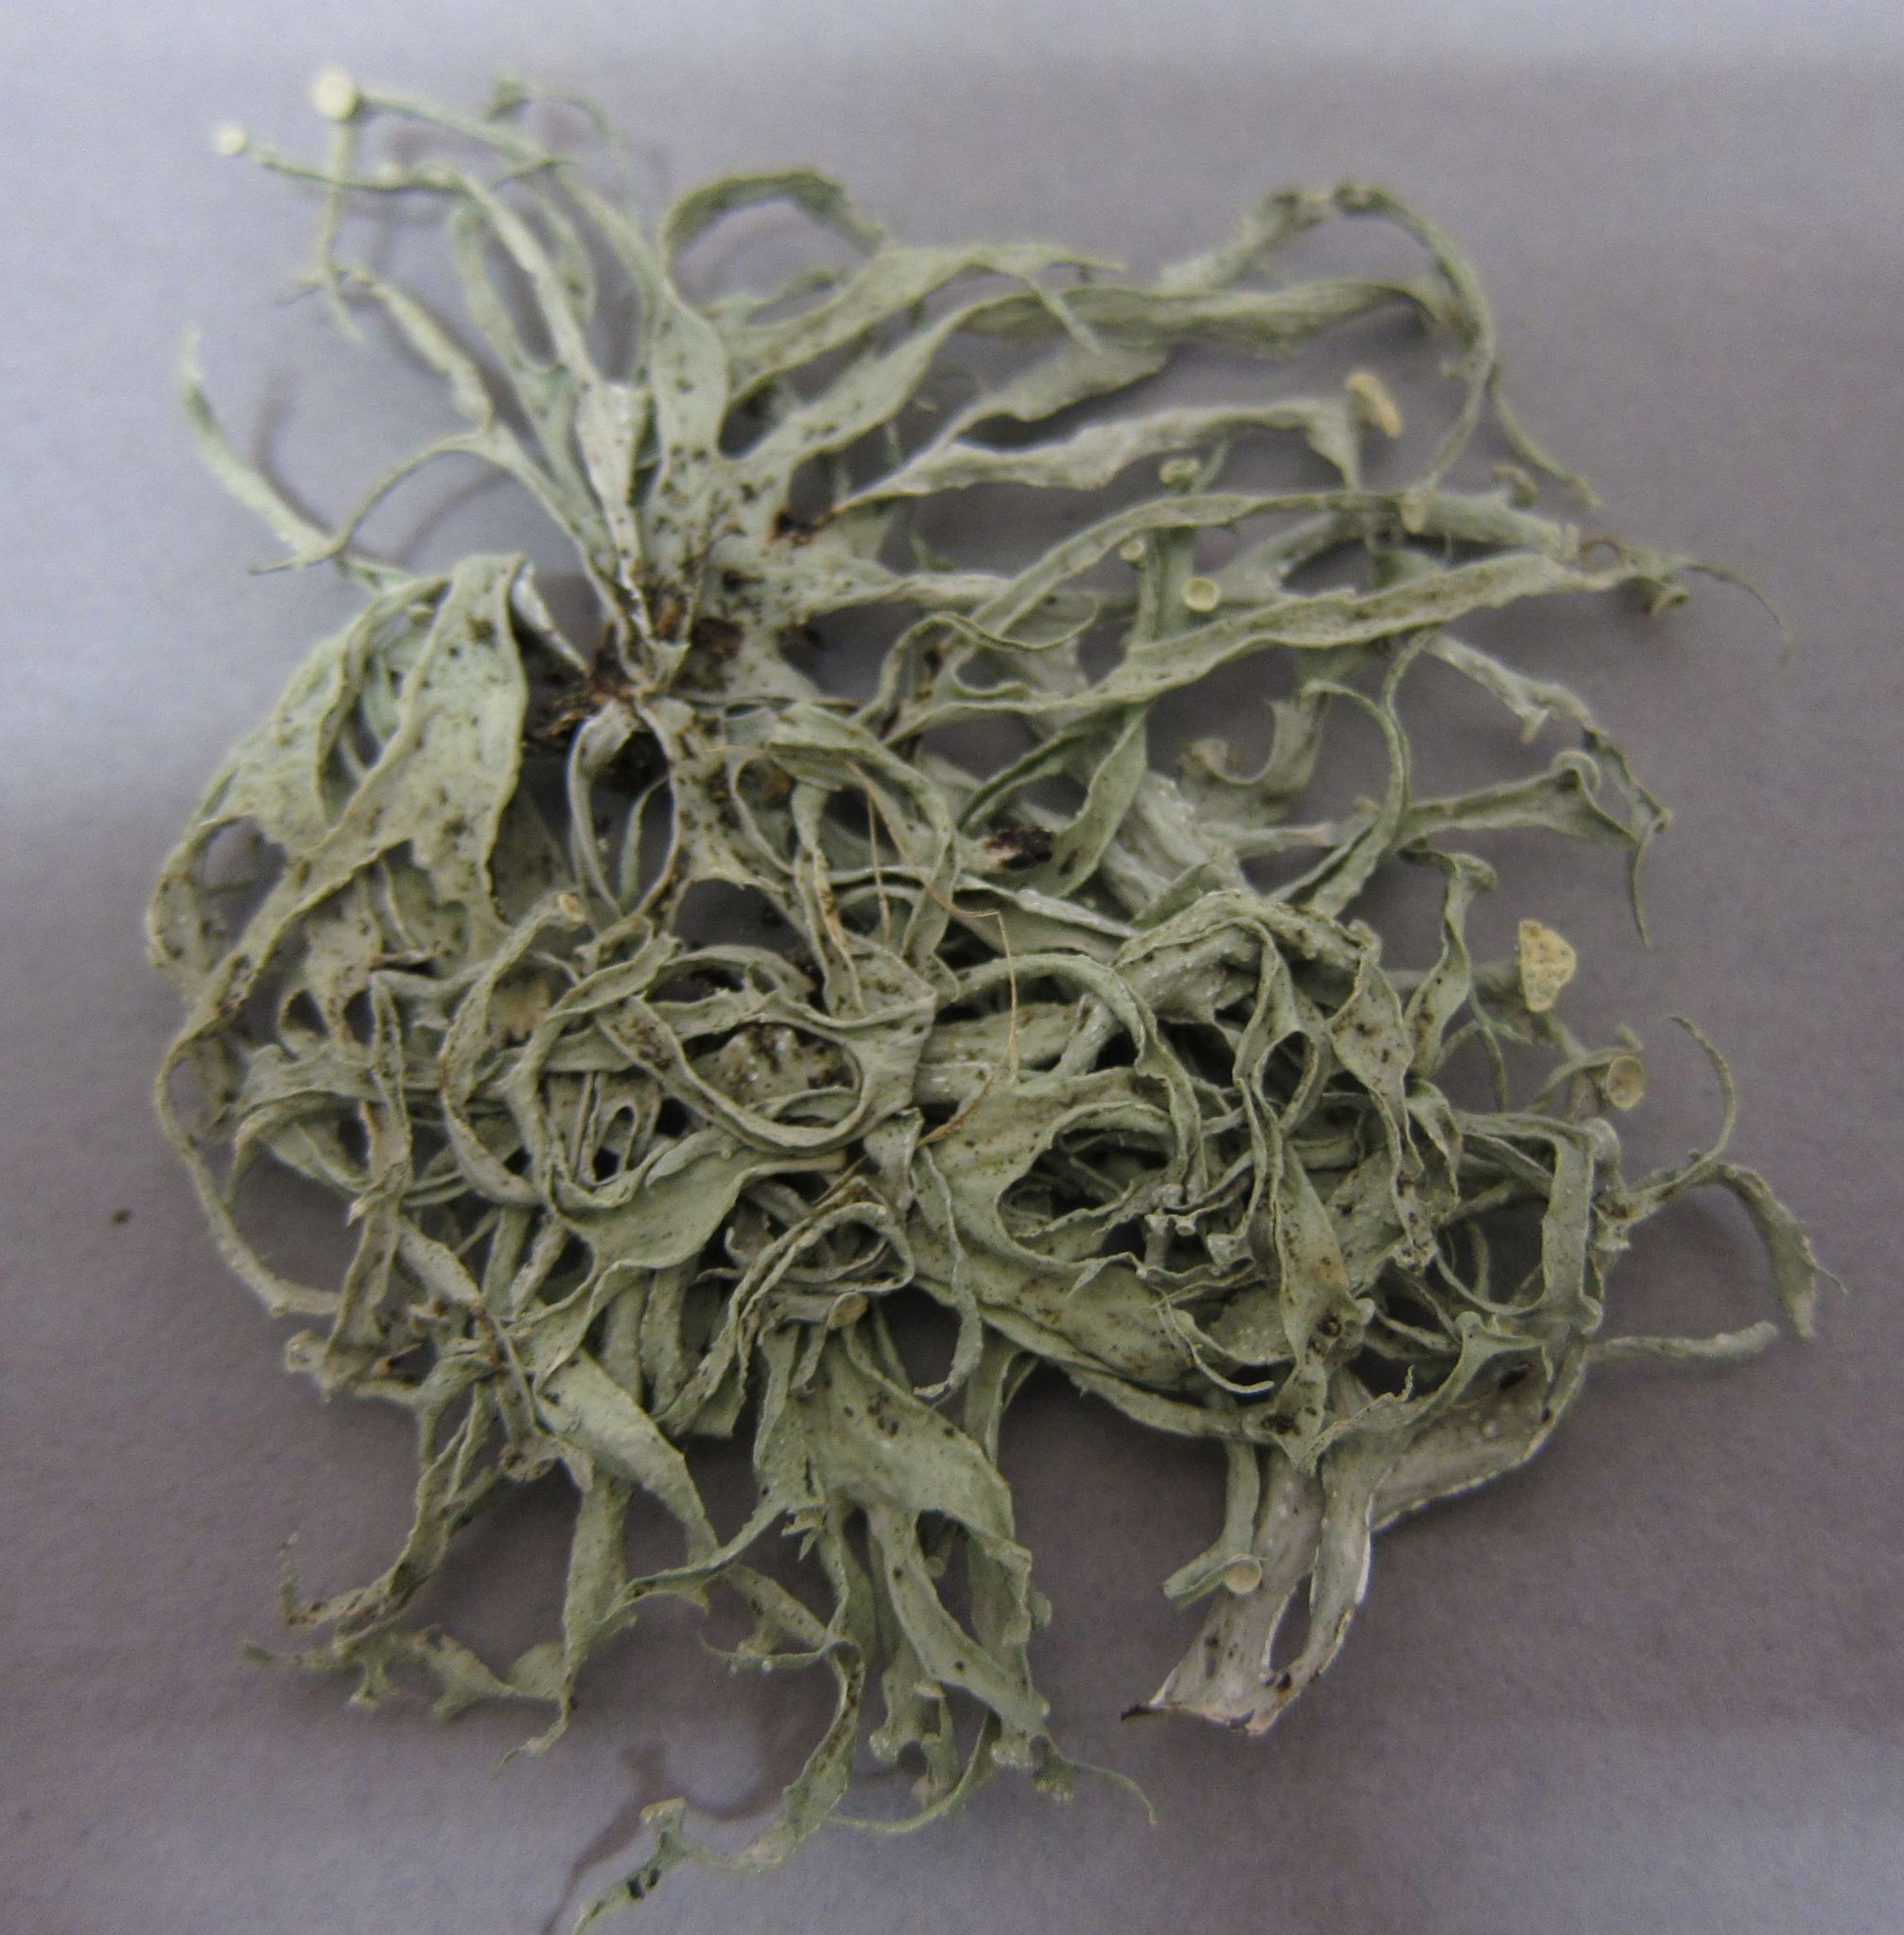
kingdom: Fungi
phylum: Ascomycota
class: Lecanoromycetes
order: Lecanorales
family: Ramalinaceae
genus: Ramalina
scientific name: Ramalina inflexa
